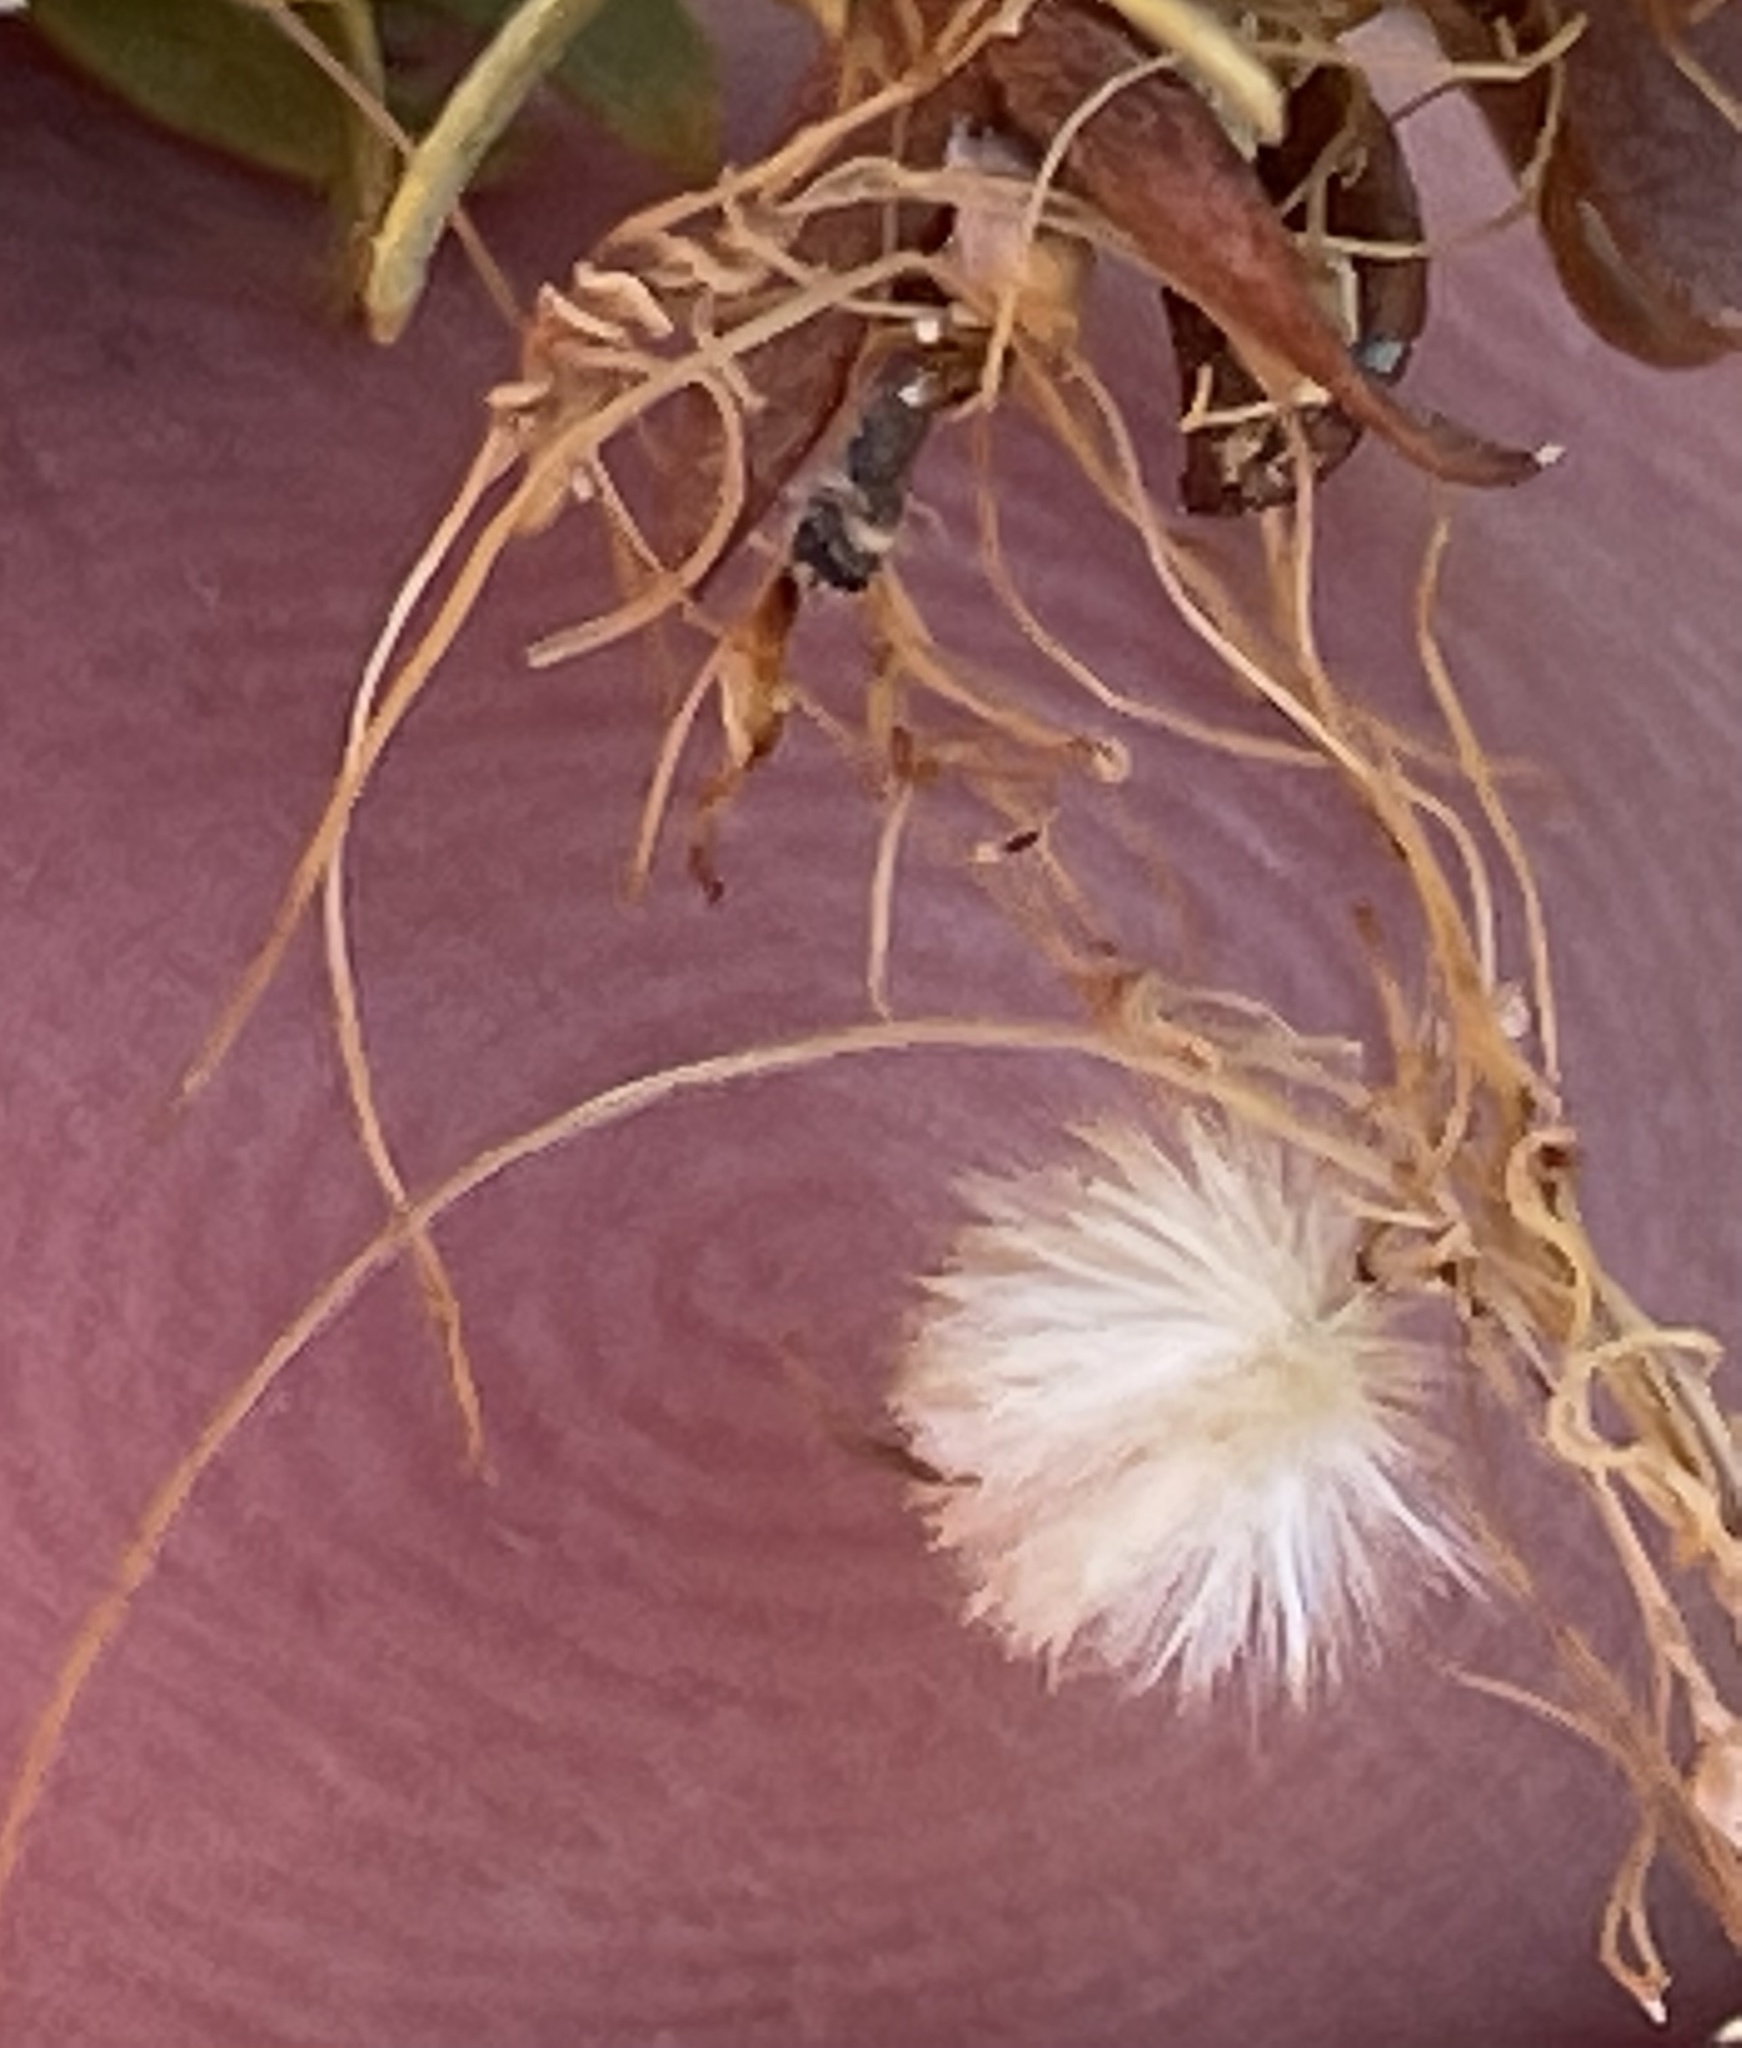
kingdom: Plantae
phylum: Tracheophyta
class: Magnoliopsida
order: Solanales
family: Convolvulaceae
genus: Cuscuta
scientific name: Cuscuta denticulata
